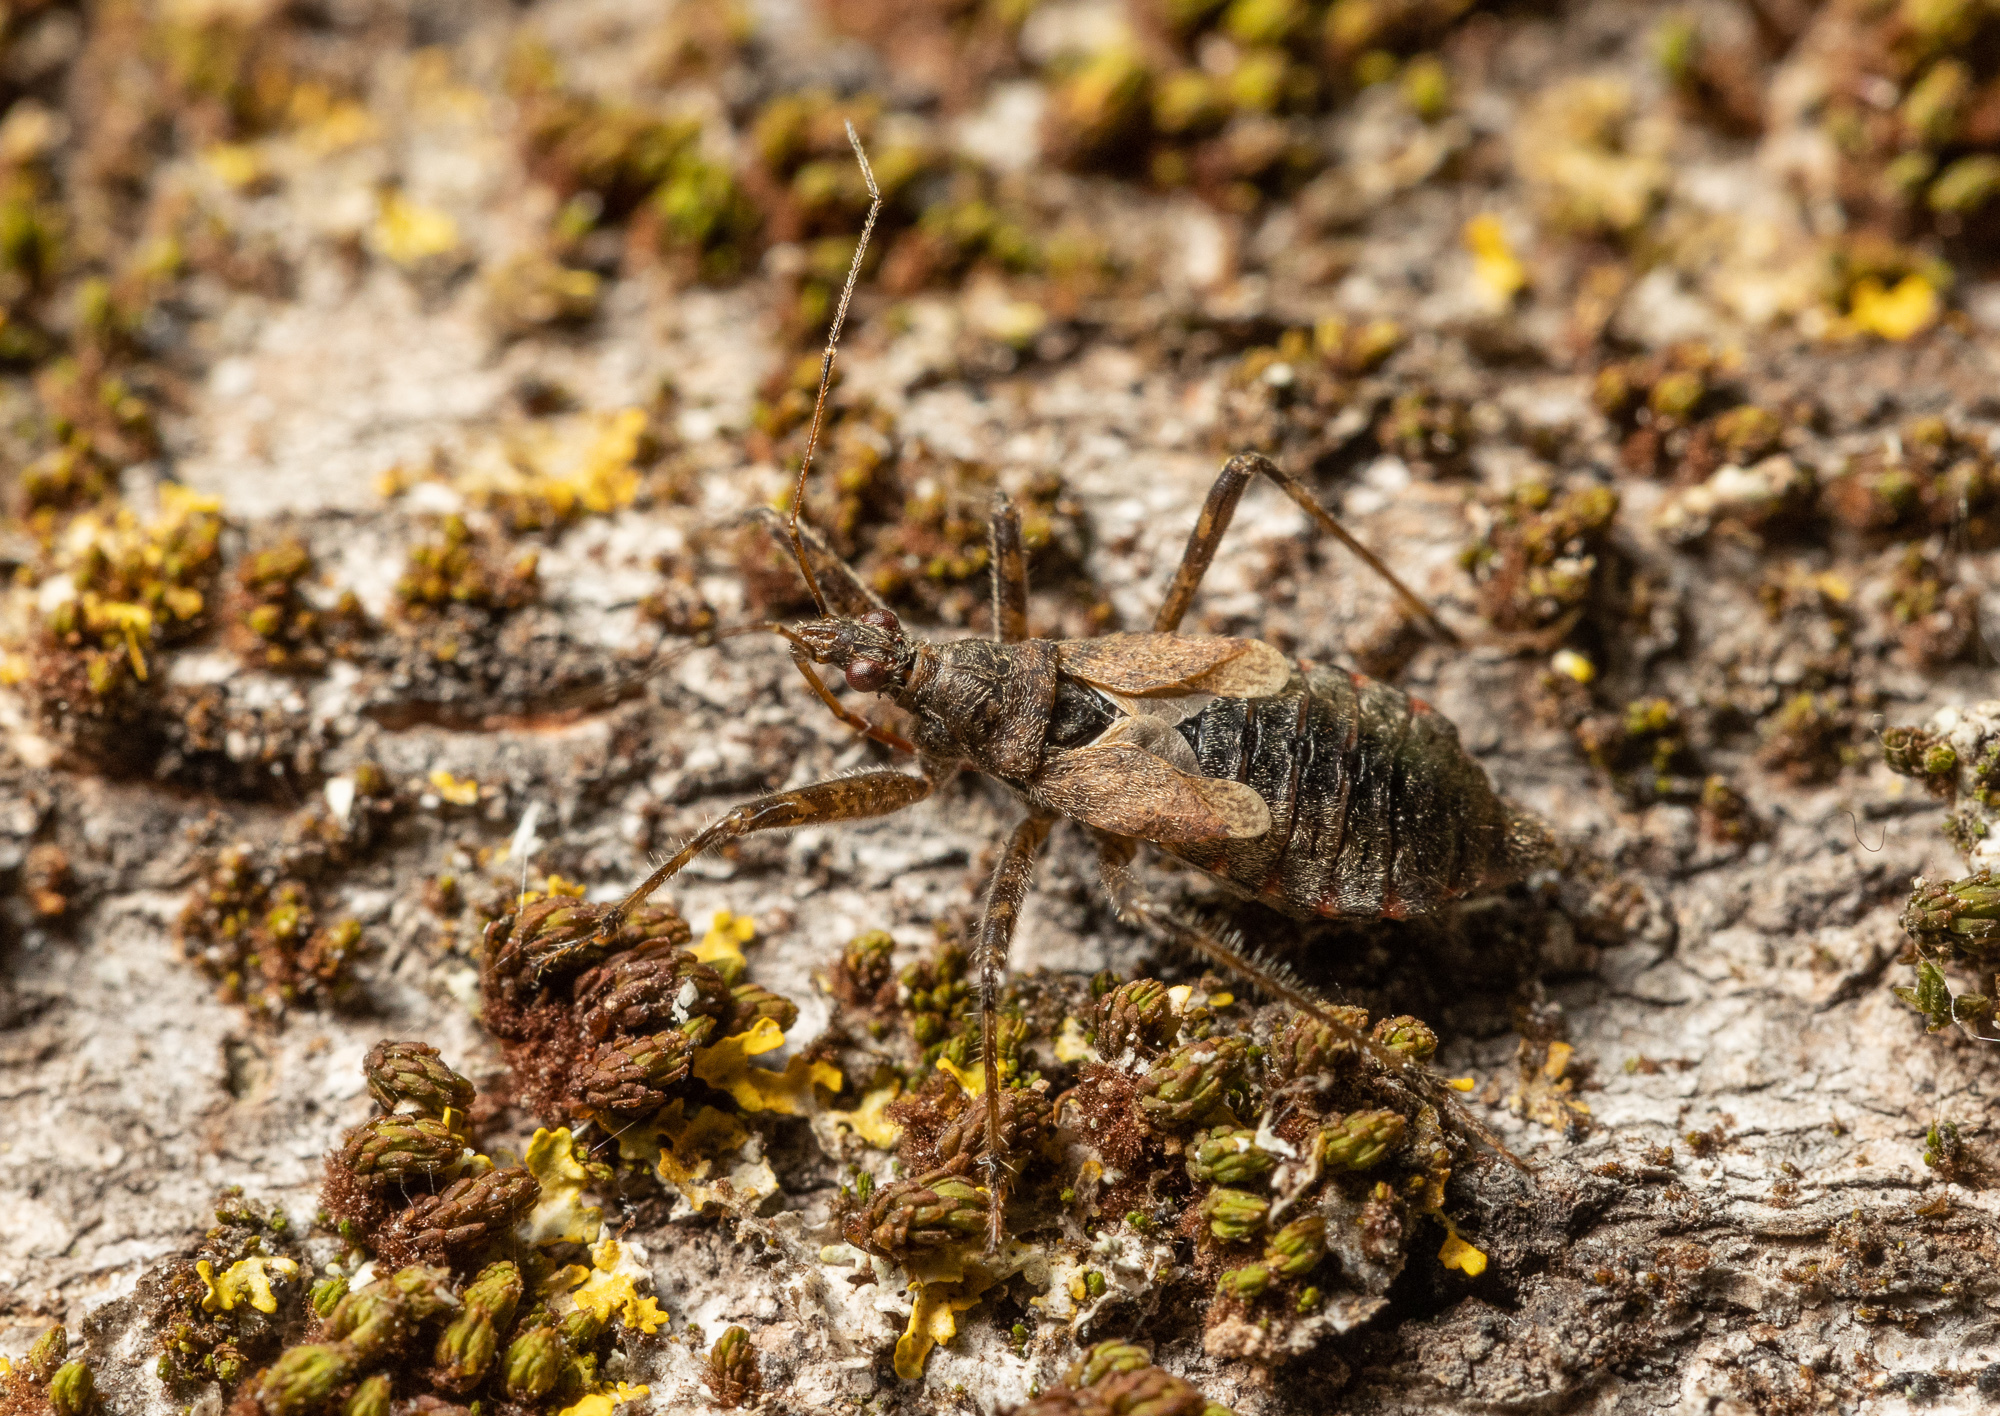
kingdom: Animalia
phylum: Arthropoda
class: Insecta
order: Hemiptera
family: Nabidae
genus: Himacerus
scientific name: Himacerus apterus
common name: Tree damsel bug
